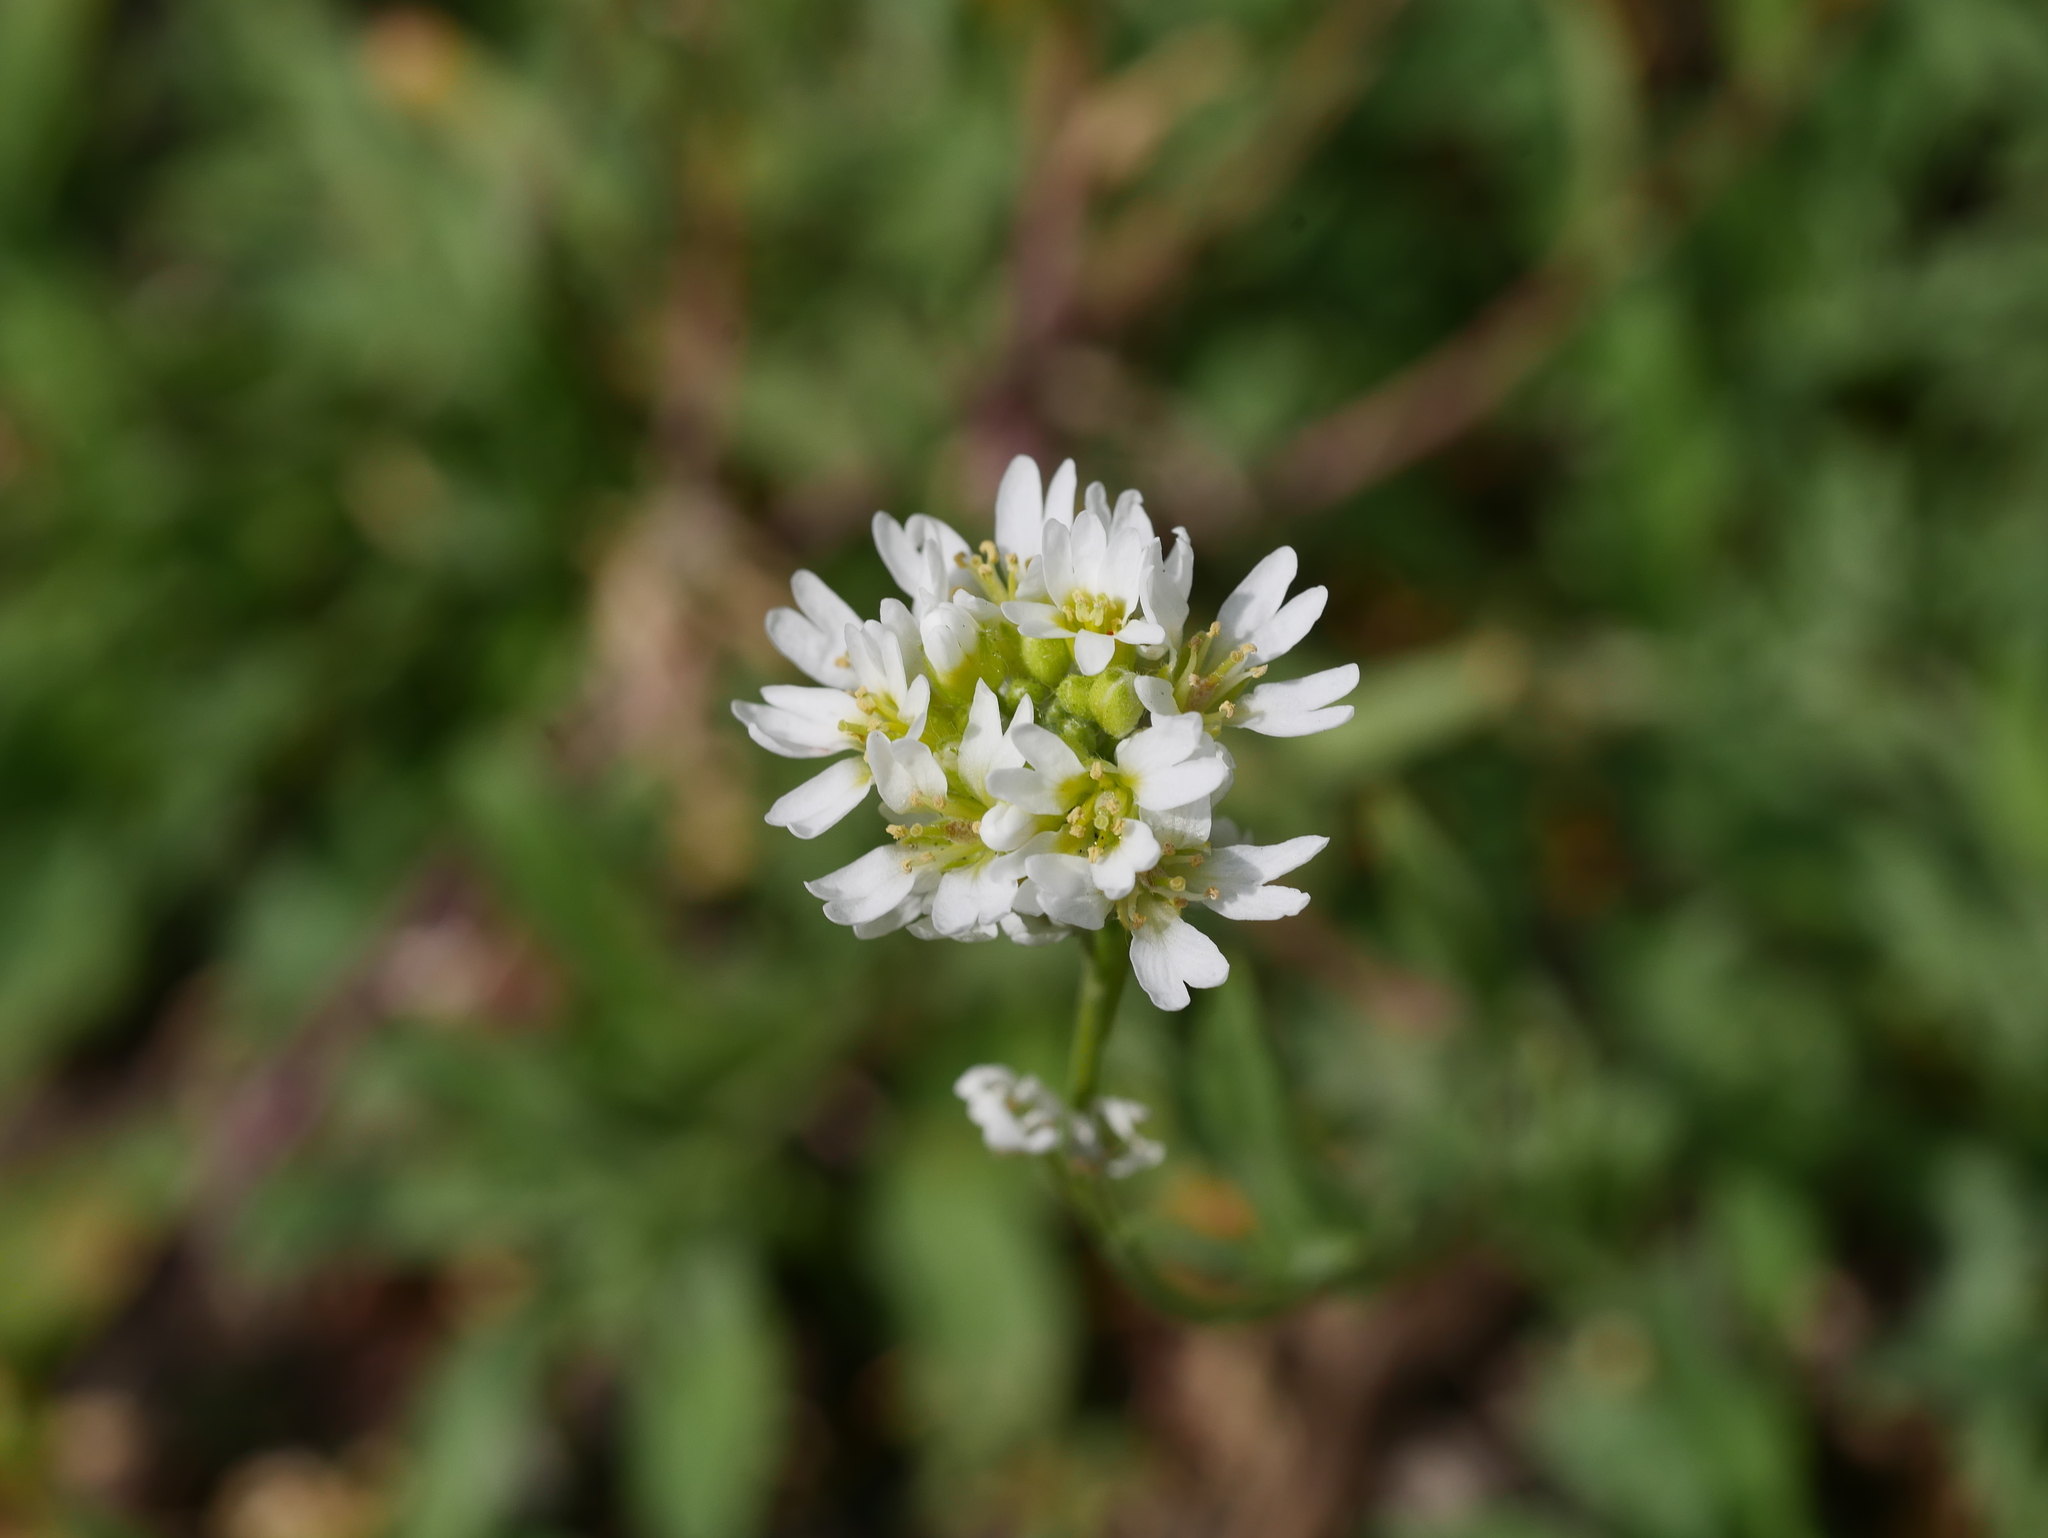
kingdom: Plantae
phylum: Tracheophyta
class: Magnoliopsida
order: Brassicales
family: Brassicaceae
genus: Berteroa
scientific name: Berteroa incana
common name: Hoary alison
